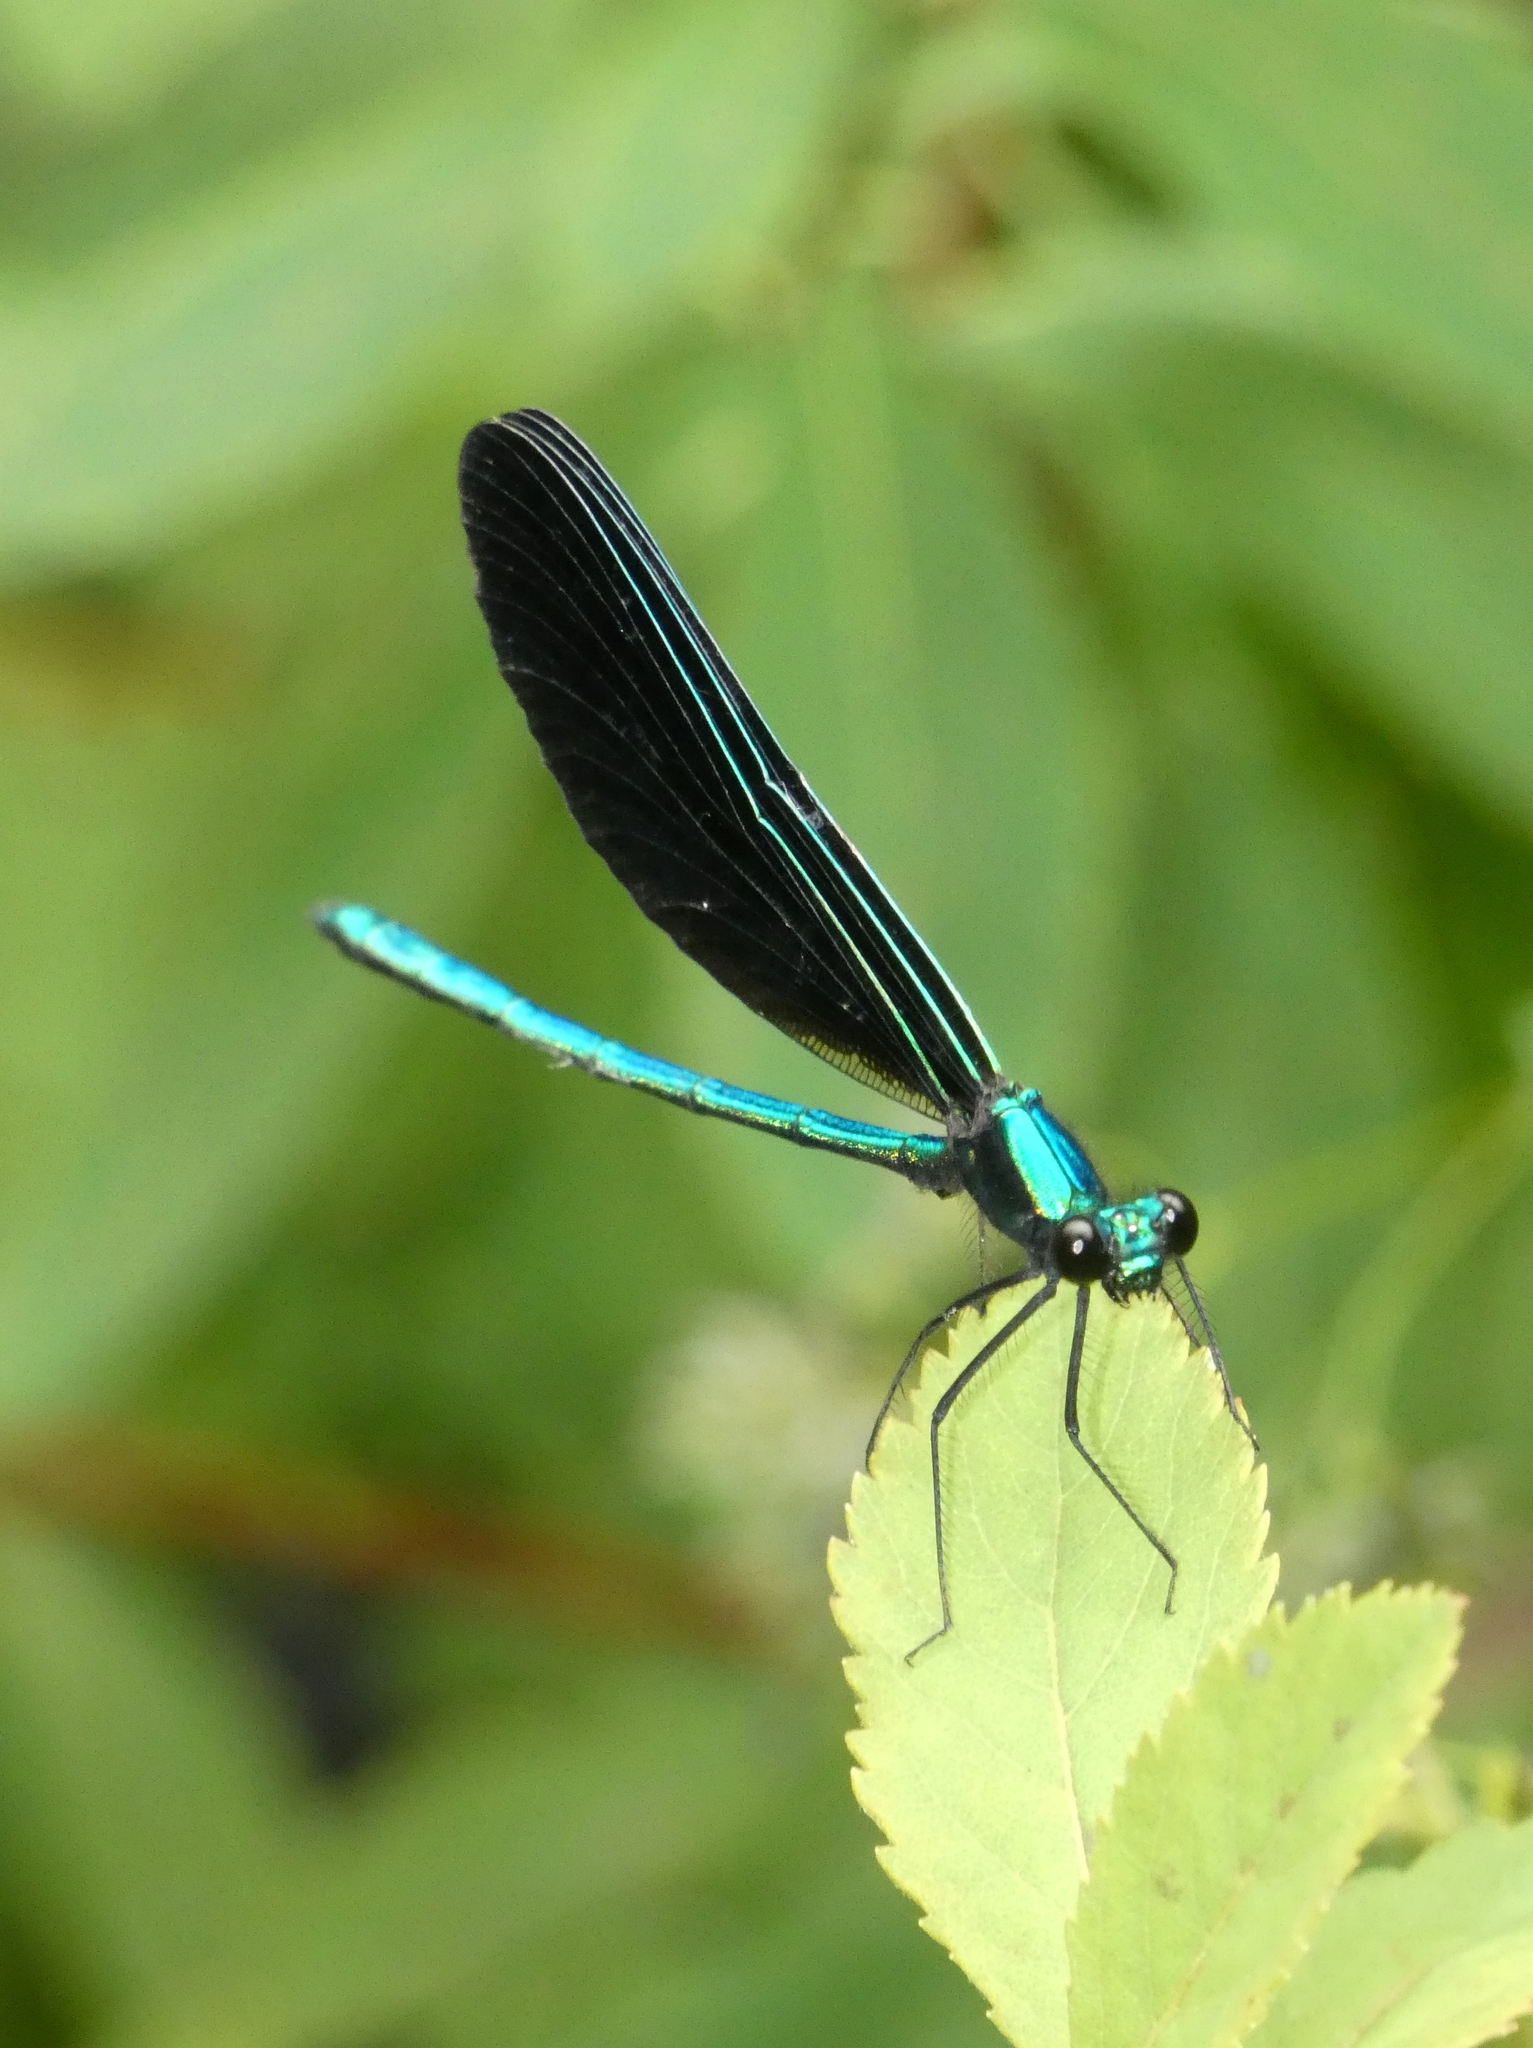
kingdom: Animalia
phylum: Arthropoda
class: Insecta
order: Odonata
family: Calopterygidae
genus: Calopteryx
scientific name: Calopteryx maculata
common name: Ebony jewelwing
